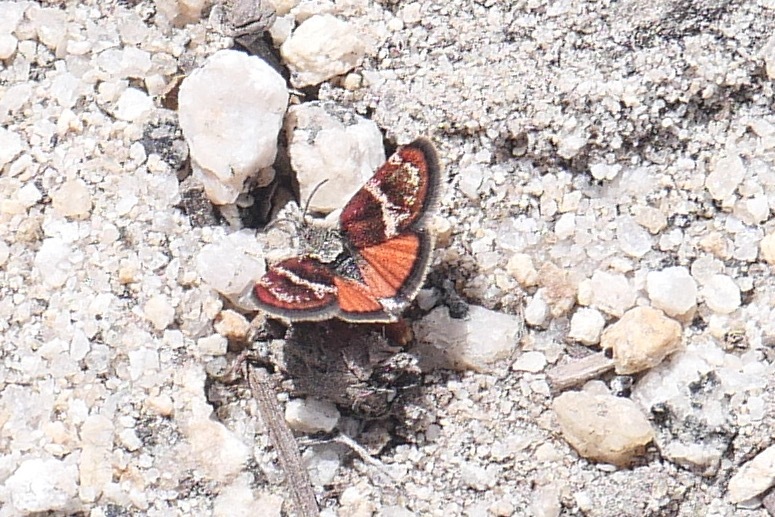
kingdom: Animalia
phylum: Arthropoda
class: Insecta
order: Lepidoptera
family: Crambidae
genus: Gyros
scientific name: Gyros muiri
